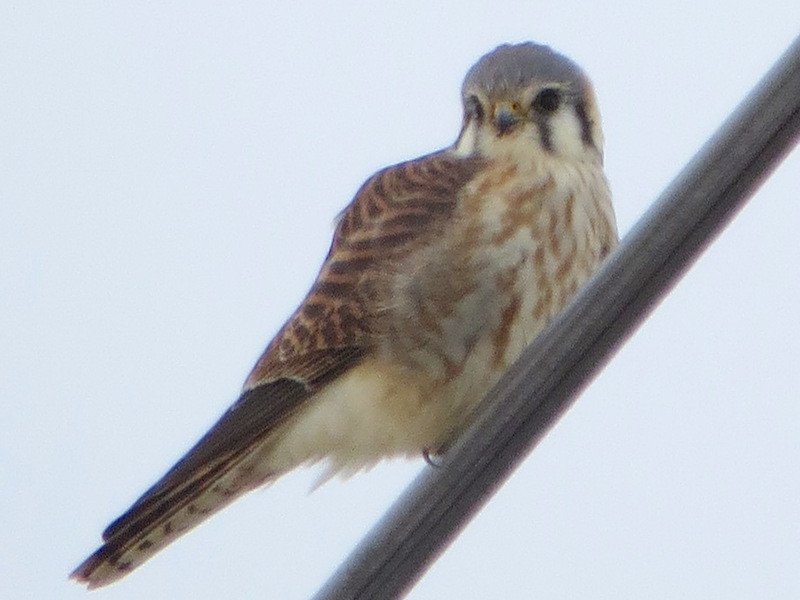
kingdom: Animalia
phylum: Chordata
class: Aves
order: Falconiformes
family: Falconidae
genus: Falco
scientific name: Falco sparverius
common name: American kestrel
